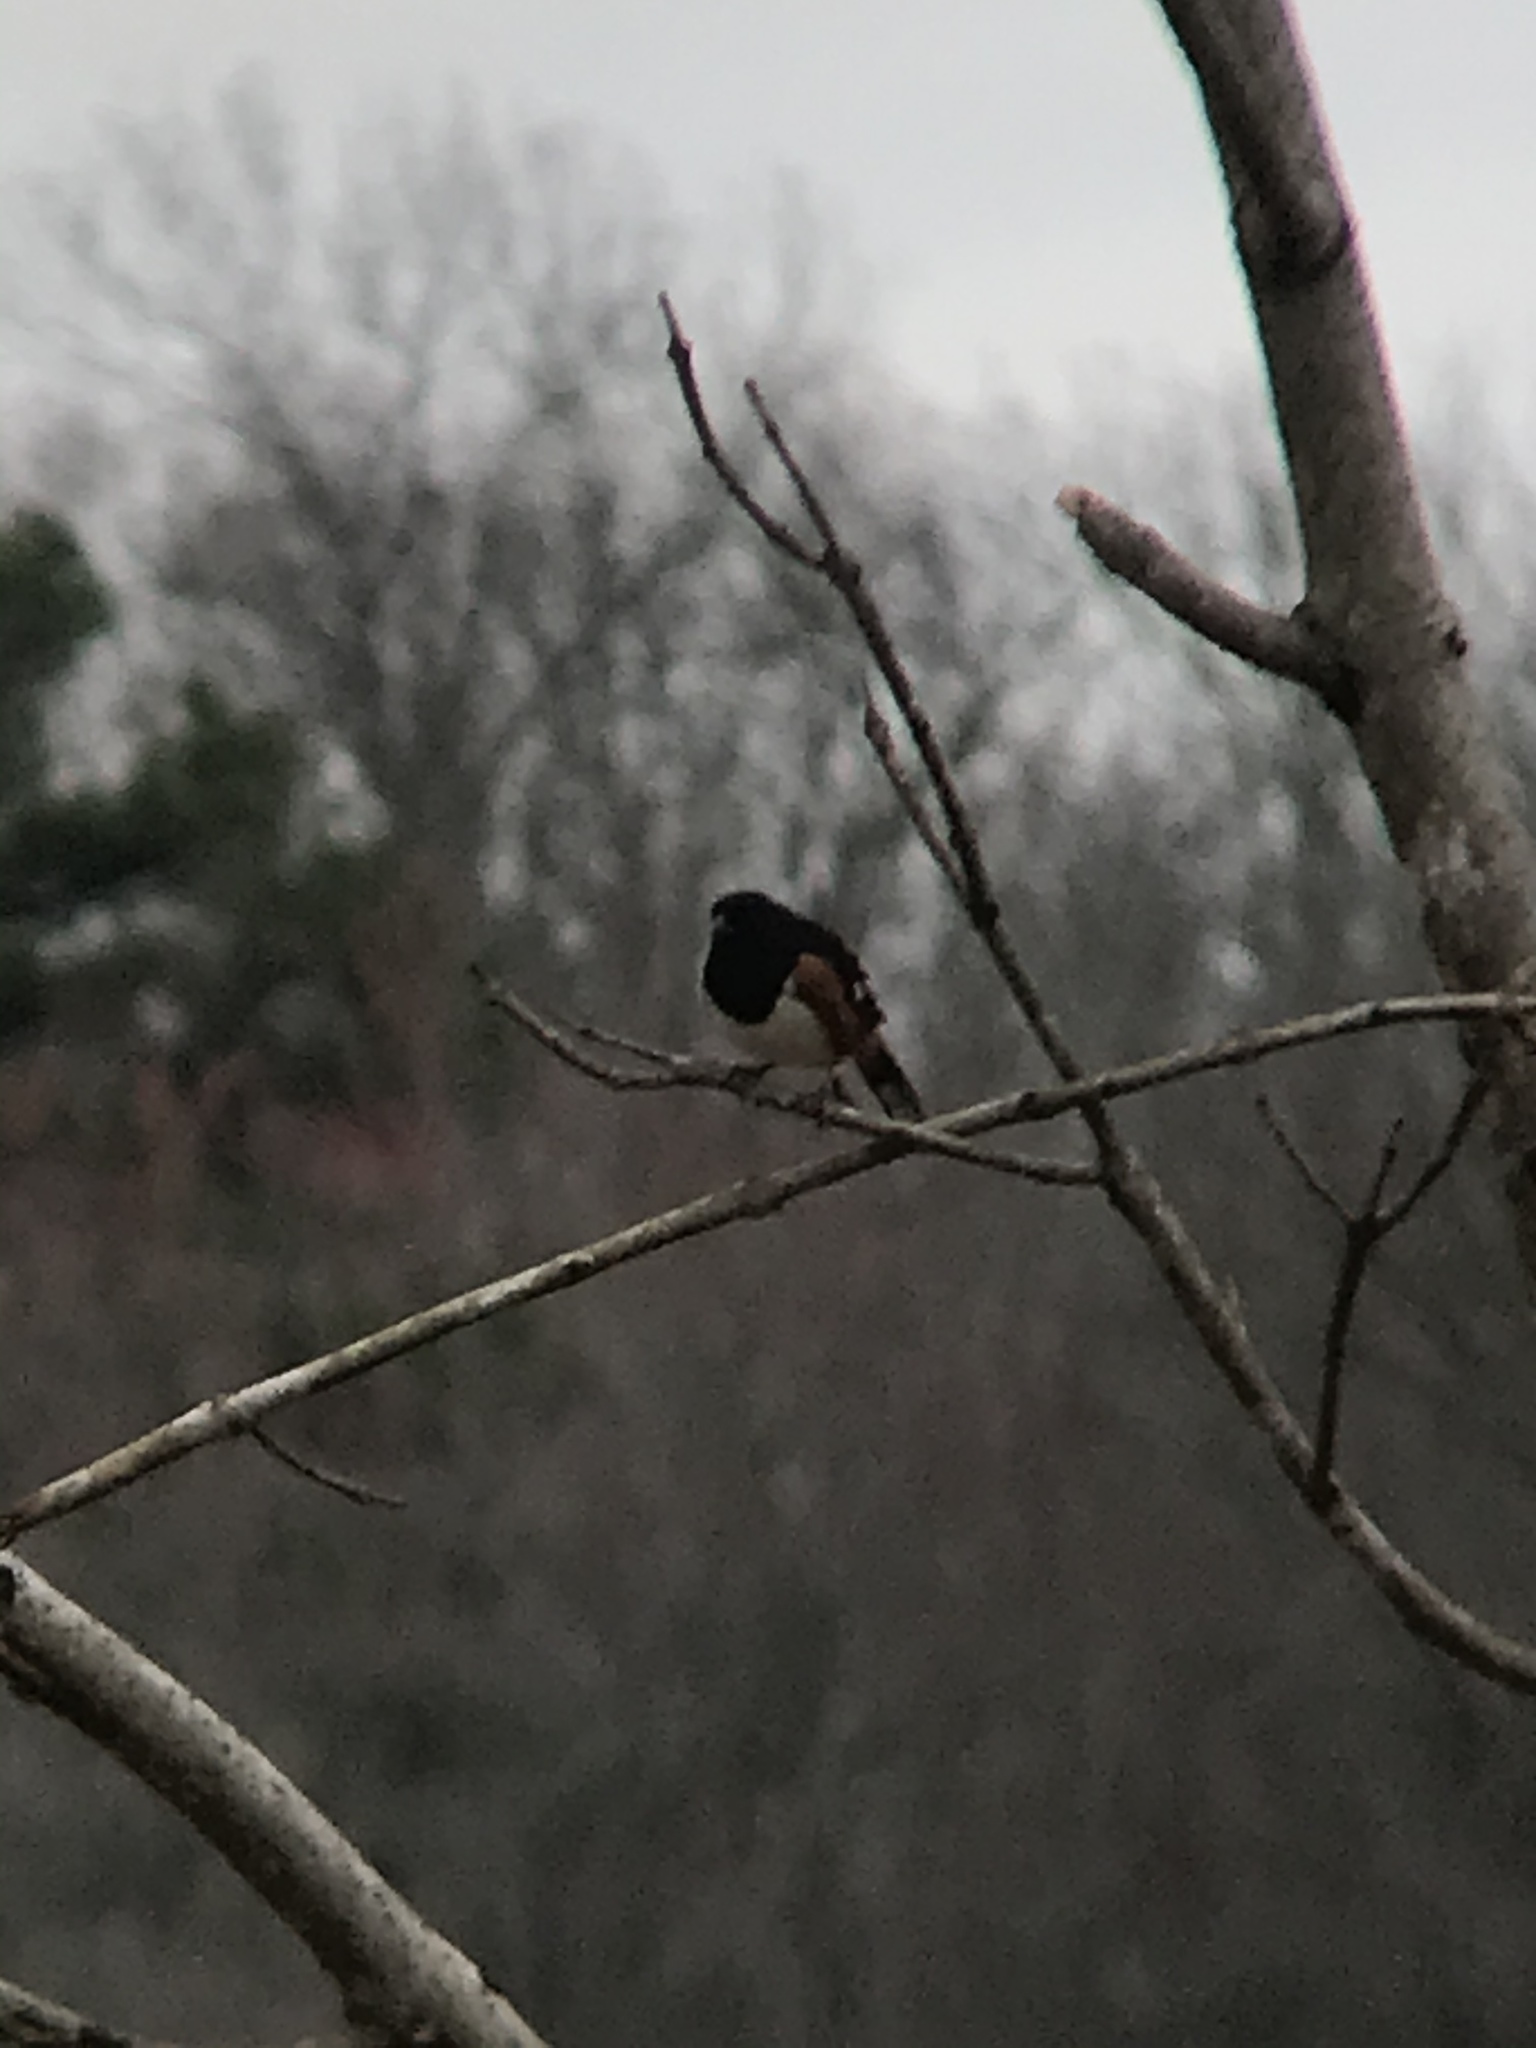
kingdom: Animalia
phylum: Chordata
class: Aves
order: Passeriformes
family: Passerellidae
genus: Pipilo
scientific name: Pipilo erythrophthalmus
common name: Eastern towhee
